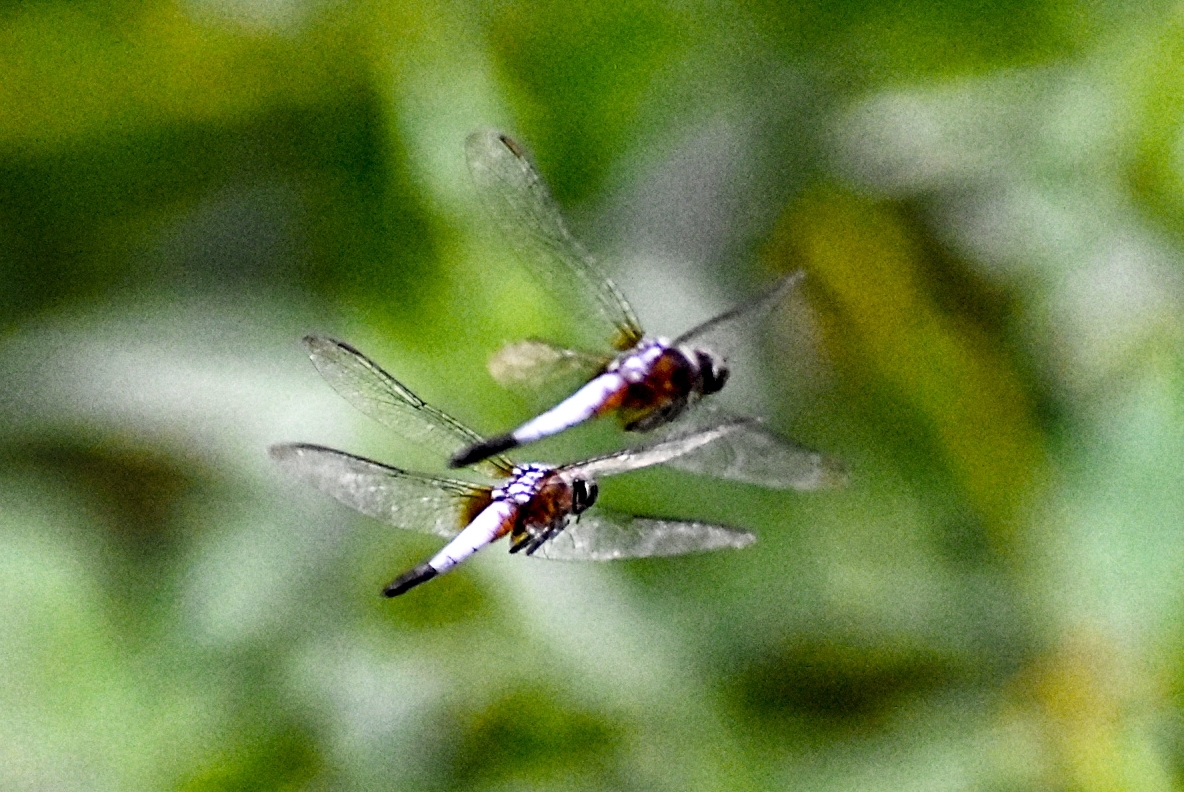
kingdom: Animalia
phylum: Arthropoda
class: Insecta
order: Odonata
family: Libellulidae
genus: Brachydiplax
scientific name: Brachydiplax chalybea
